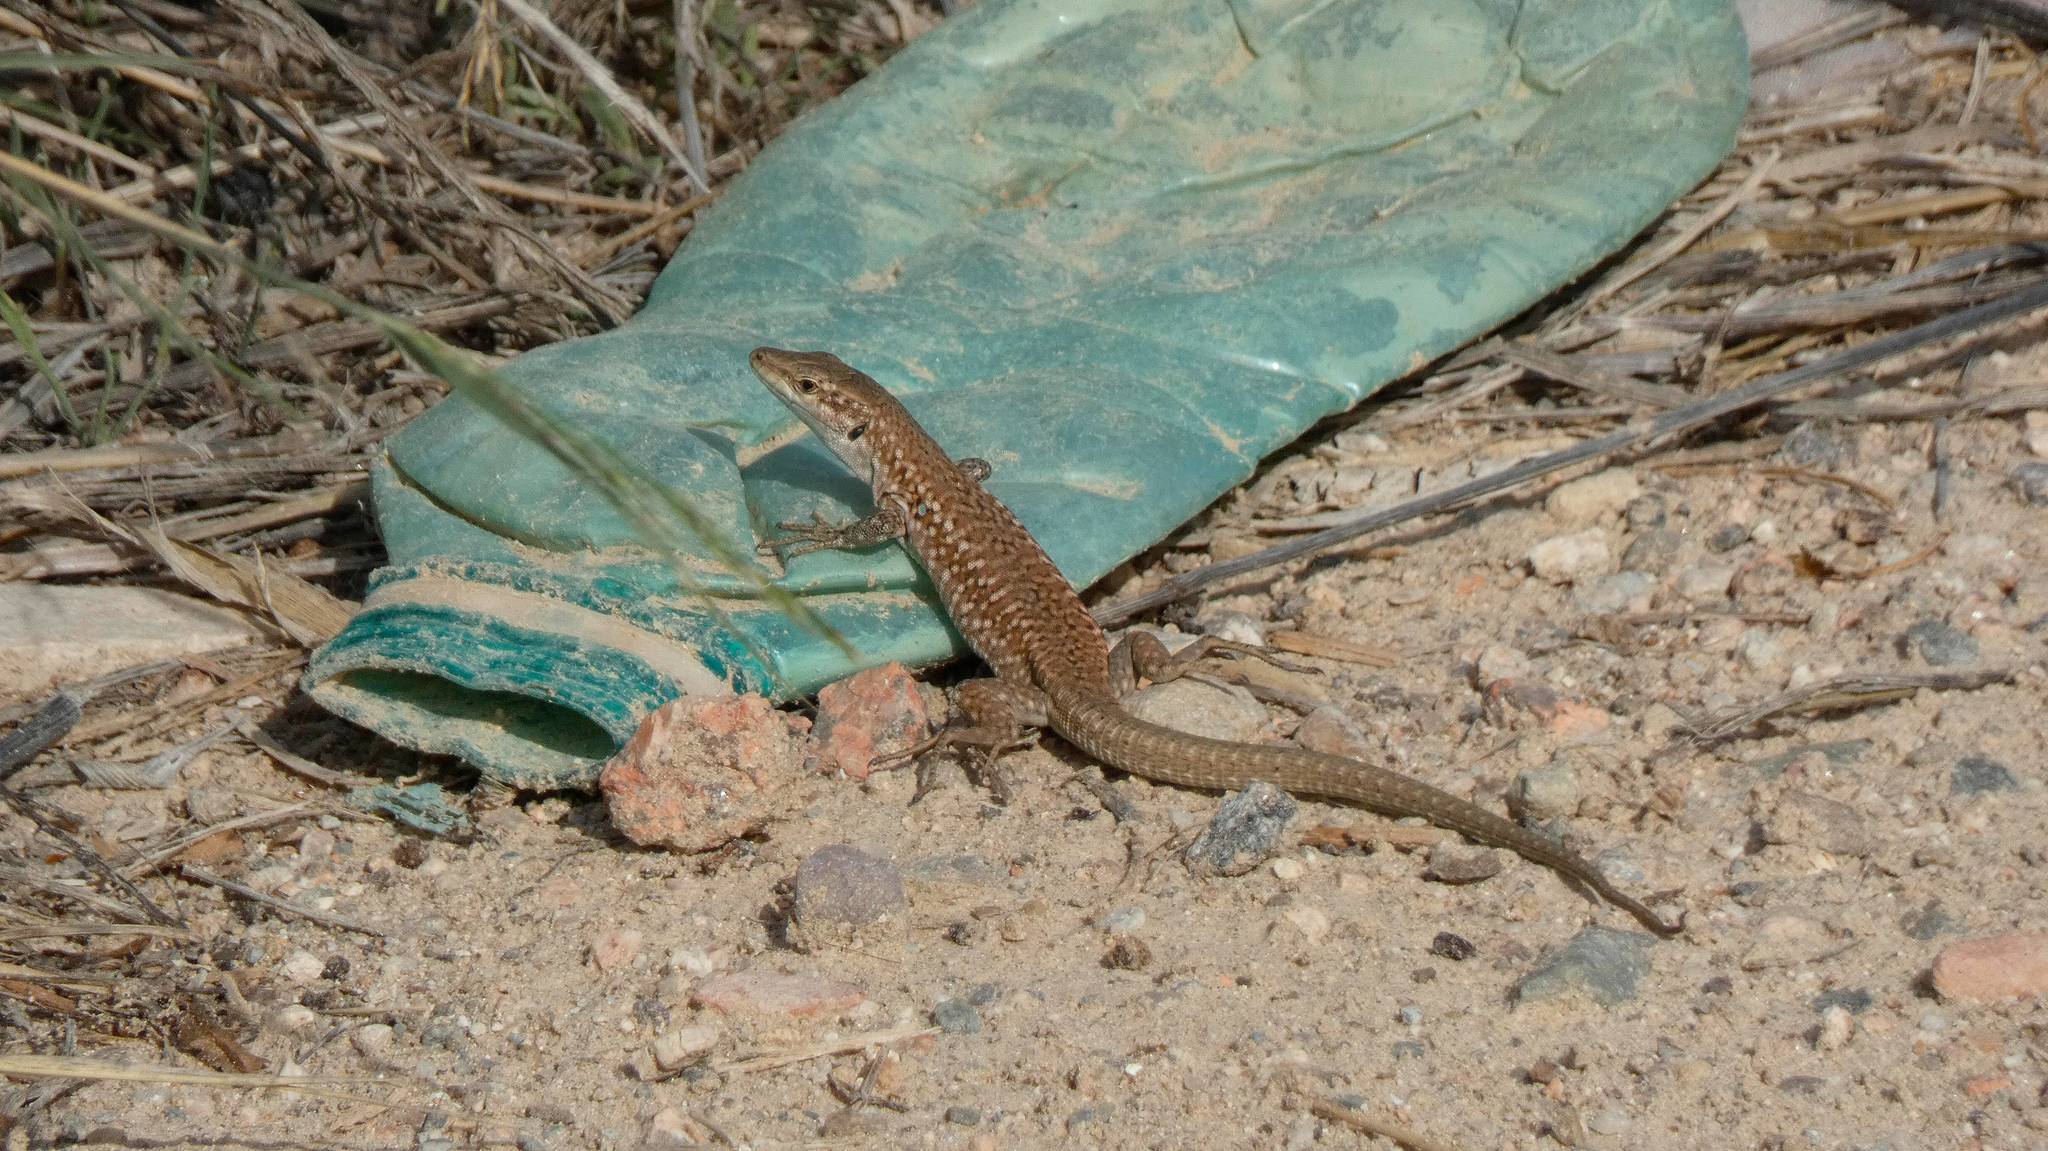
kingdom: Animalia
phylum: Chordata
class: Squamata
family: Lacertidae
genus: Podarcis
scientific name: Podarcis siculus
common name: Italian wall lizard
